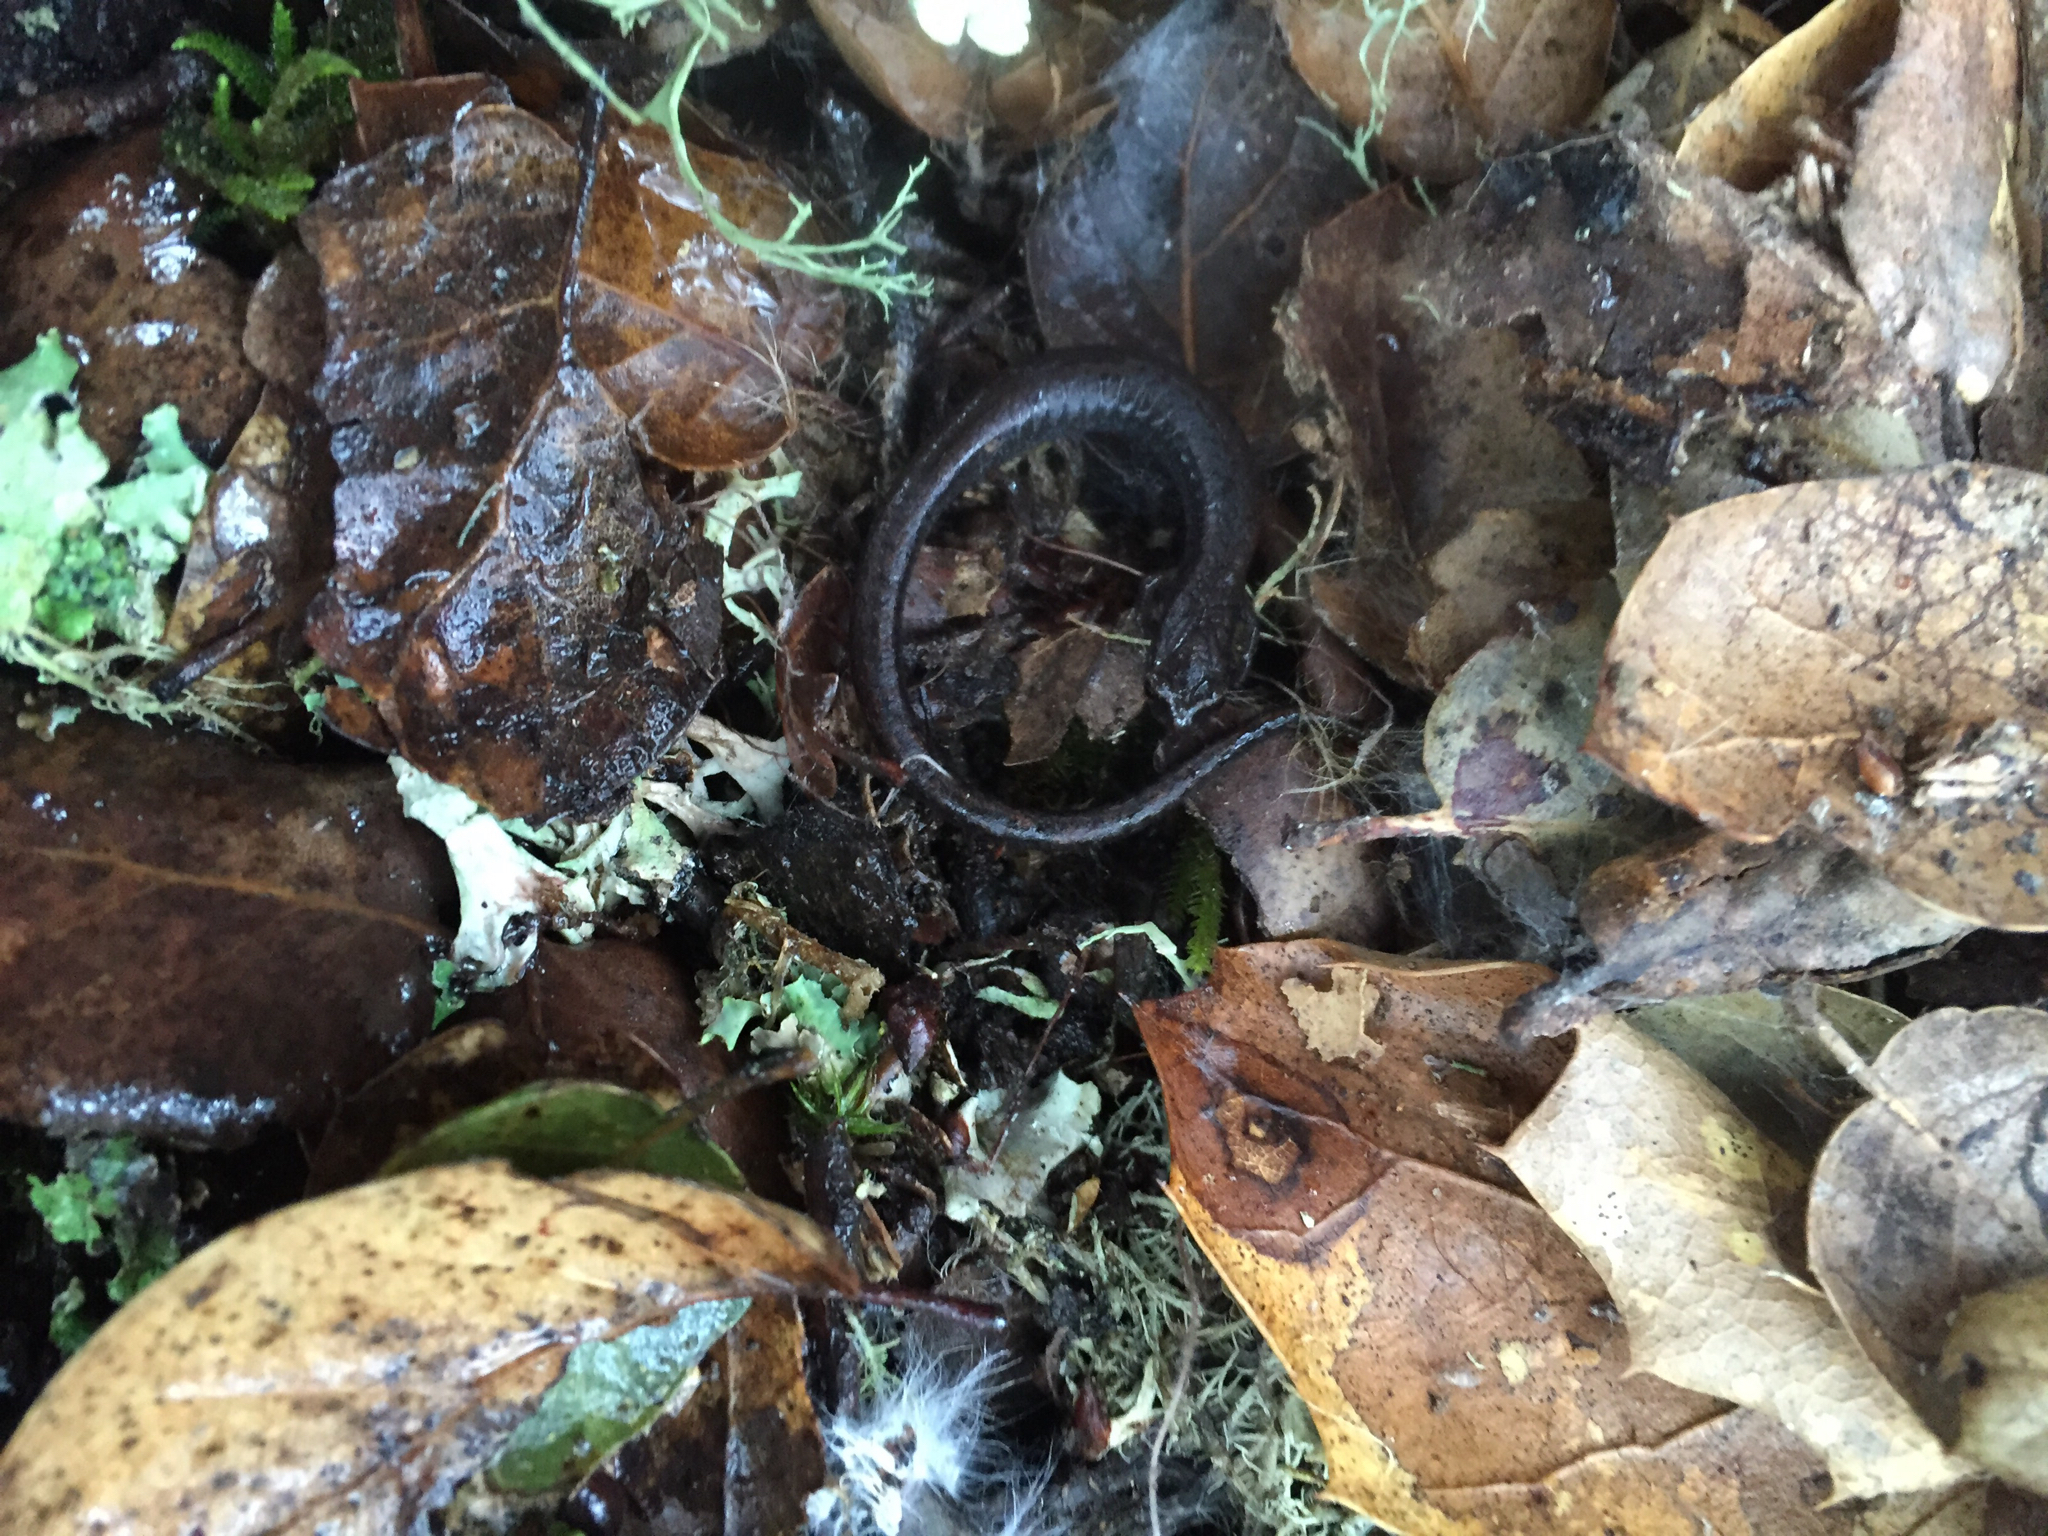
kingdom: Animalia
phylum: Chordata
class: Amphibia
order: Caudata
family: Plethodontidae
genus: Batrachoseps
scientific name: Batrachoseps attenuatus
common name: California slender salamander
